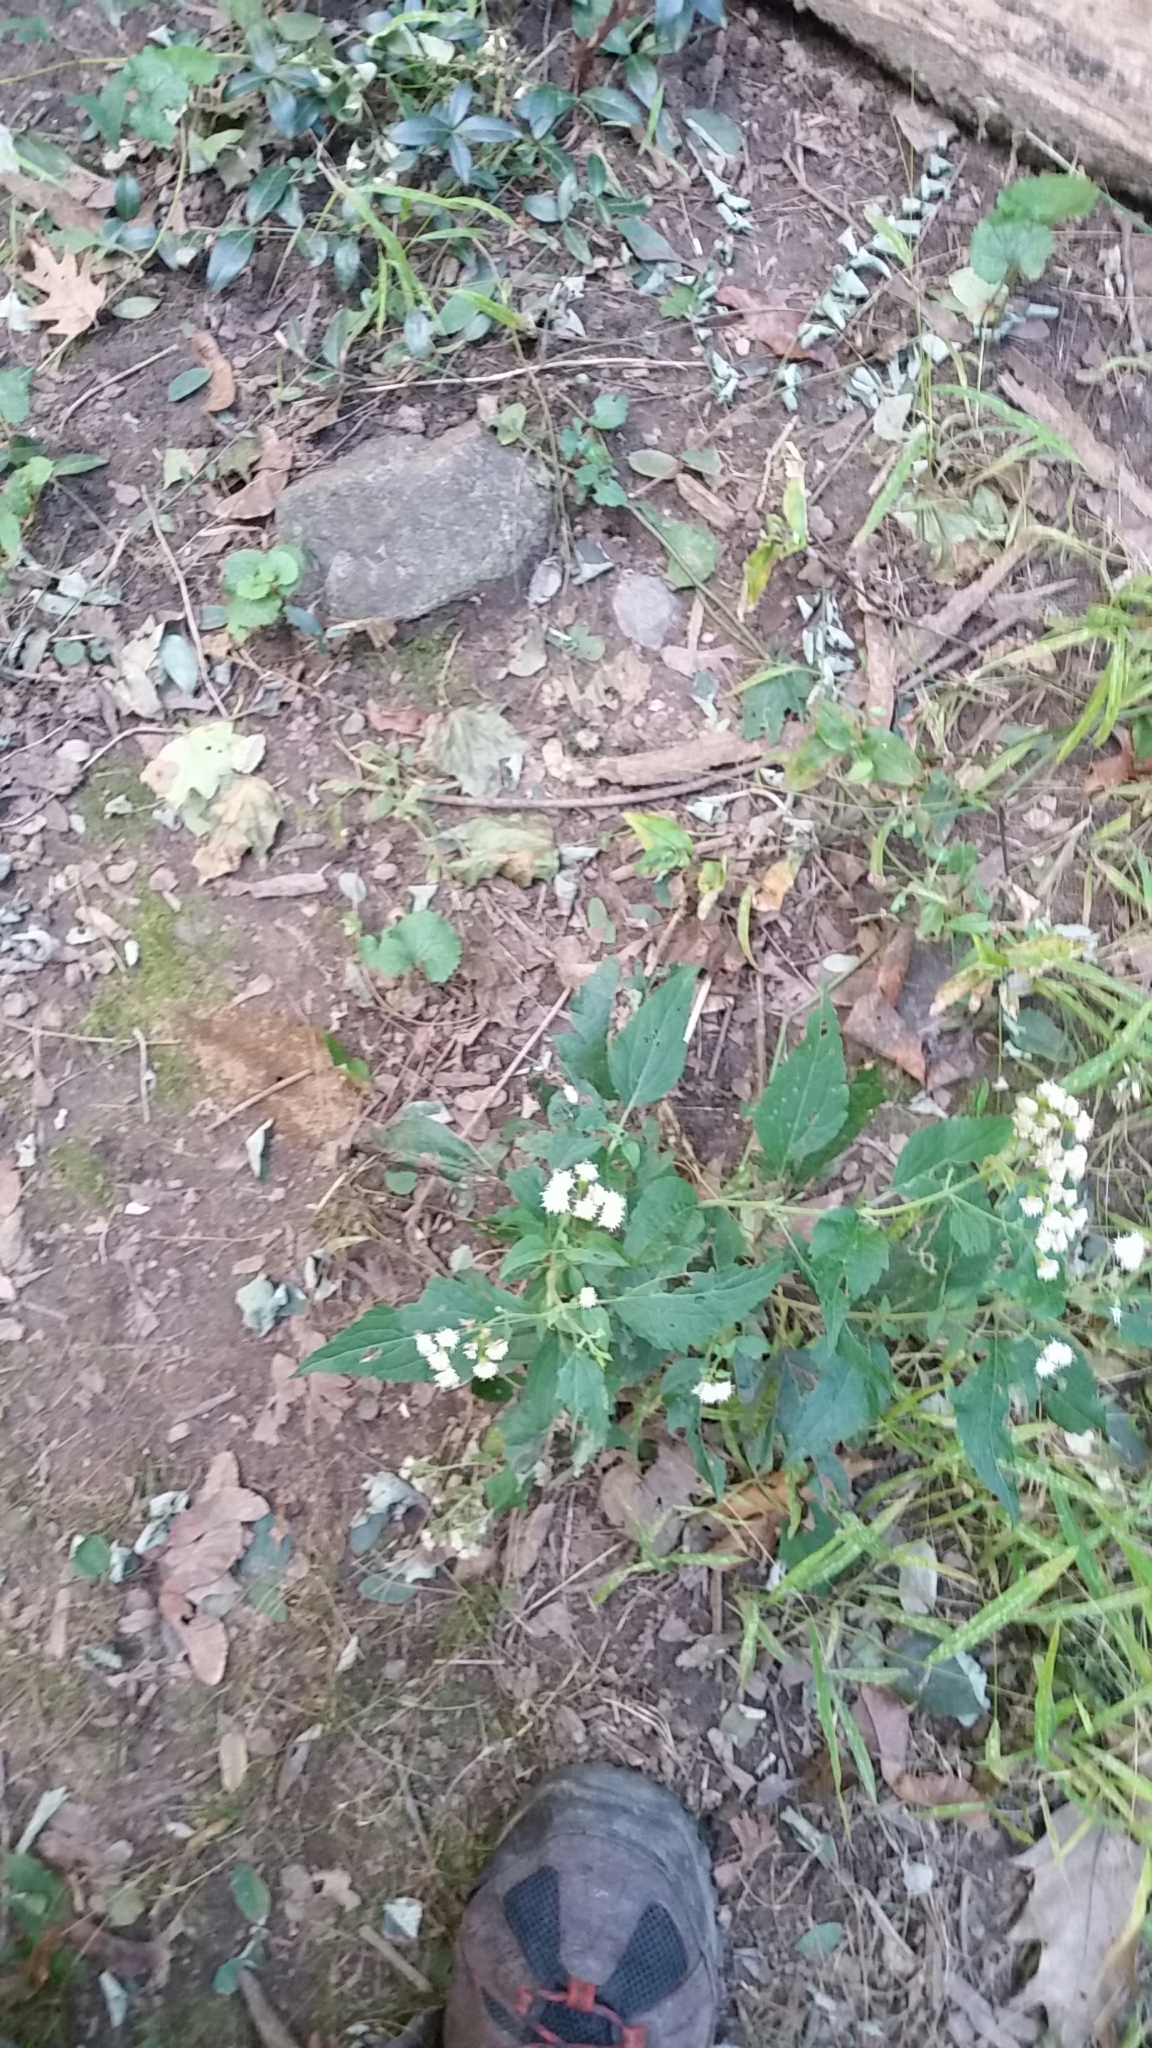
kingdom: Plantae
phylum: Tracheophyta
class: Magnoliopsida
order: Asterales
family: Asteraceae
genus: Ageratina
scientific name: Ageratina altissima
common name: White snakeroot
